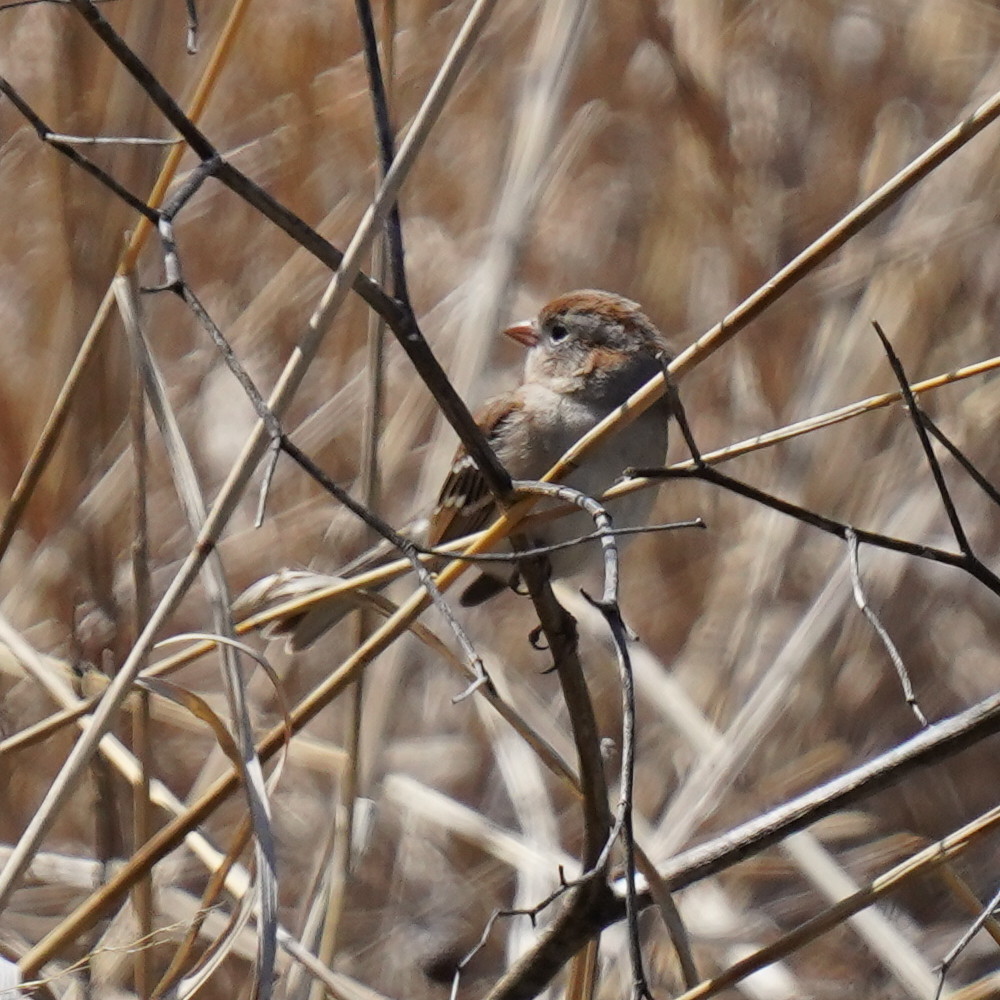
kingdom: Animalia
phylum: Chordata
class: Aves
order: Passeriformes
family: Passerellidae
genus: Spizella
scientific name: Spizella pusilla
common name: Field sparrow
